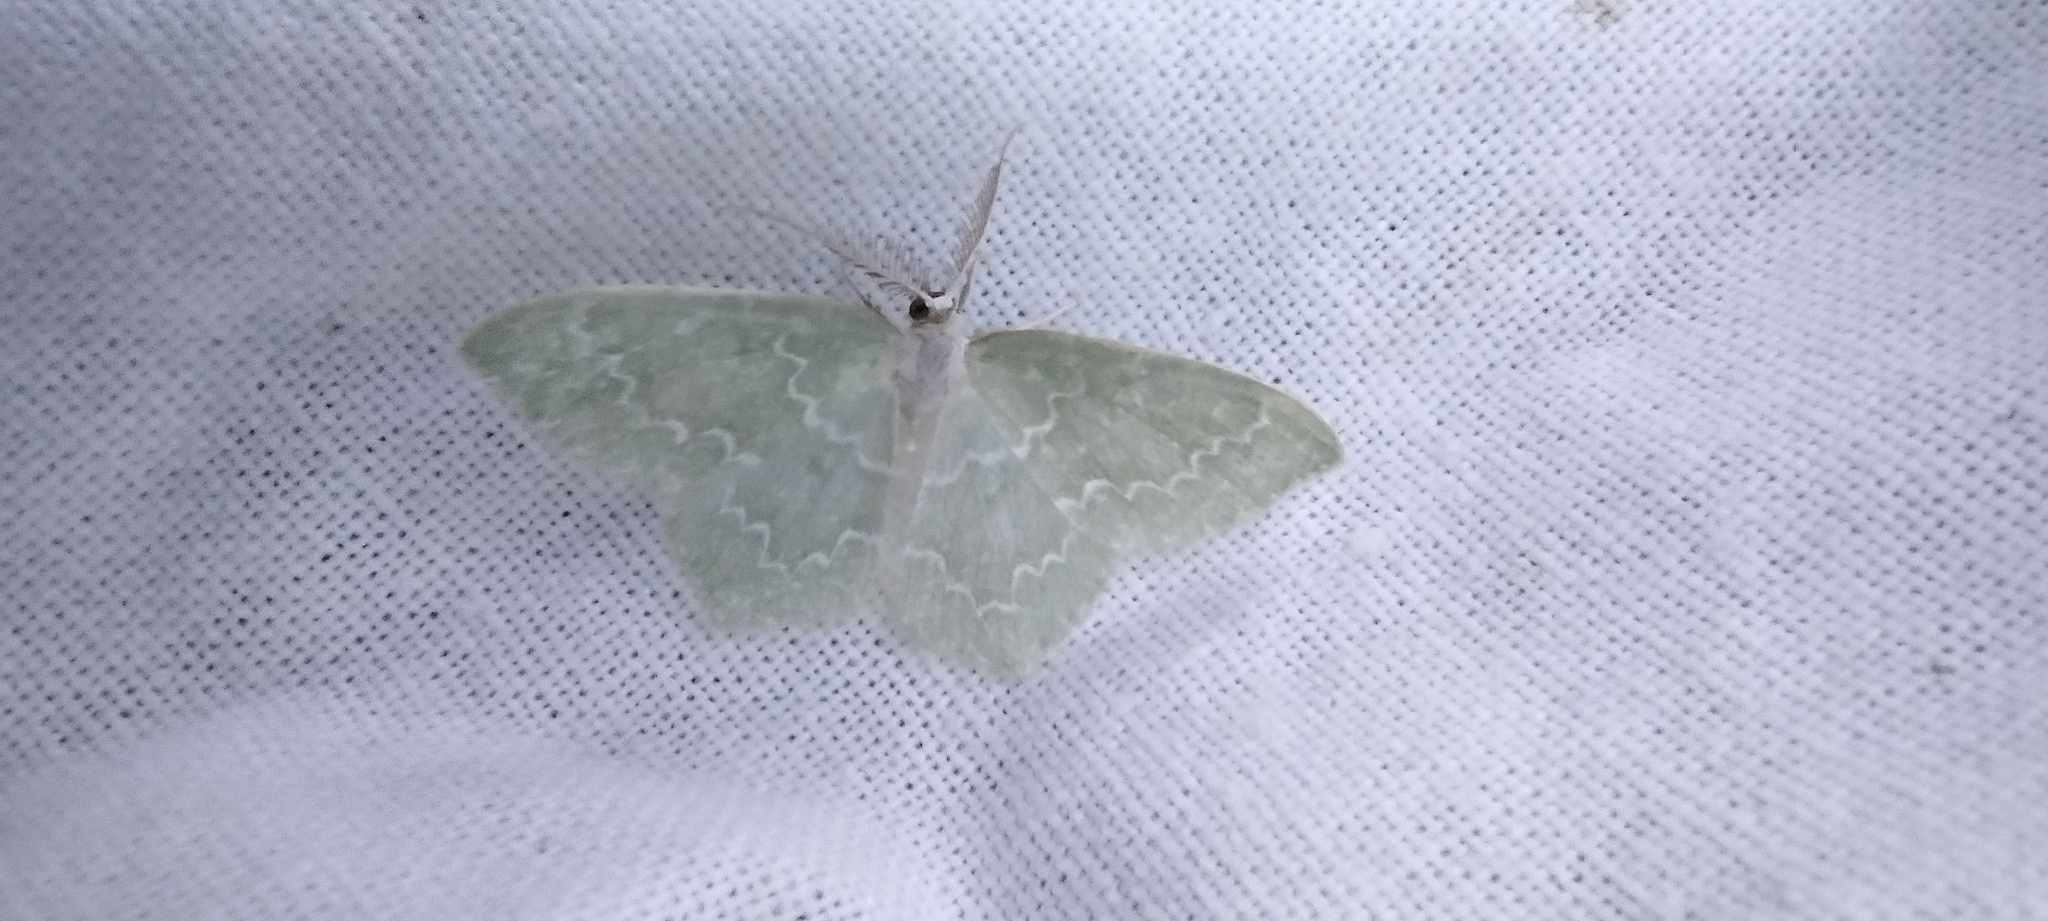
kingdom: Animalia
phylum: Arthropoda
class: Insecta
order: Lepidoptera
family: Geometridae
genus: Jodis
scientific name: Jodis putata
